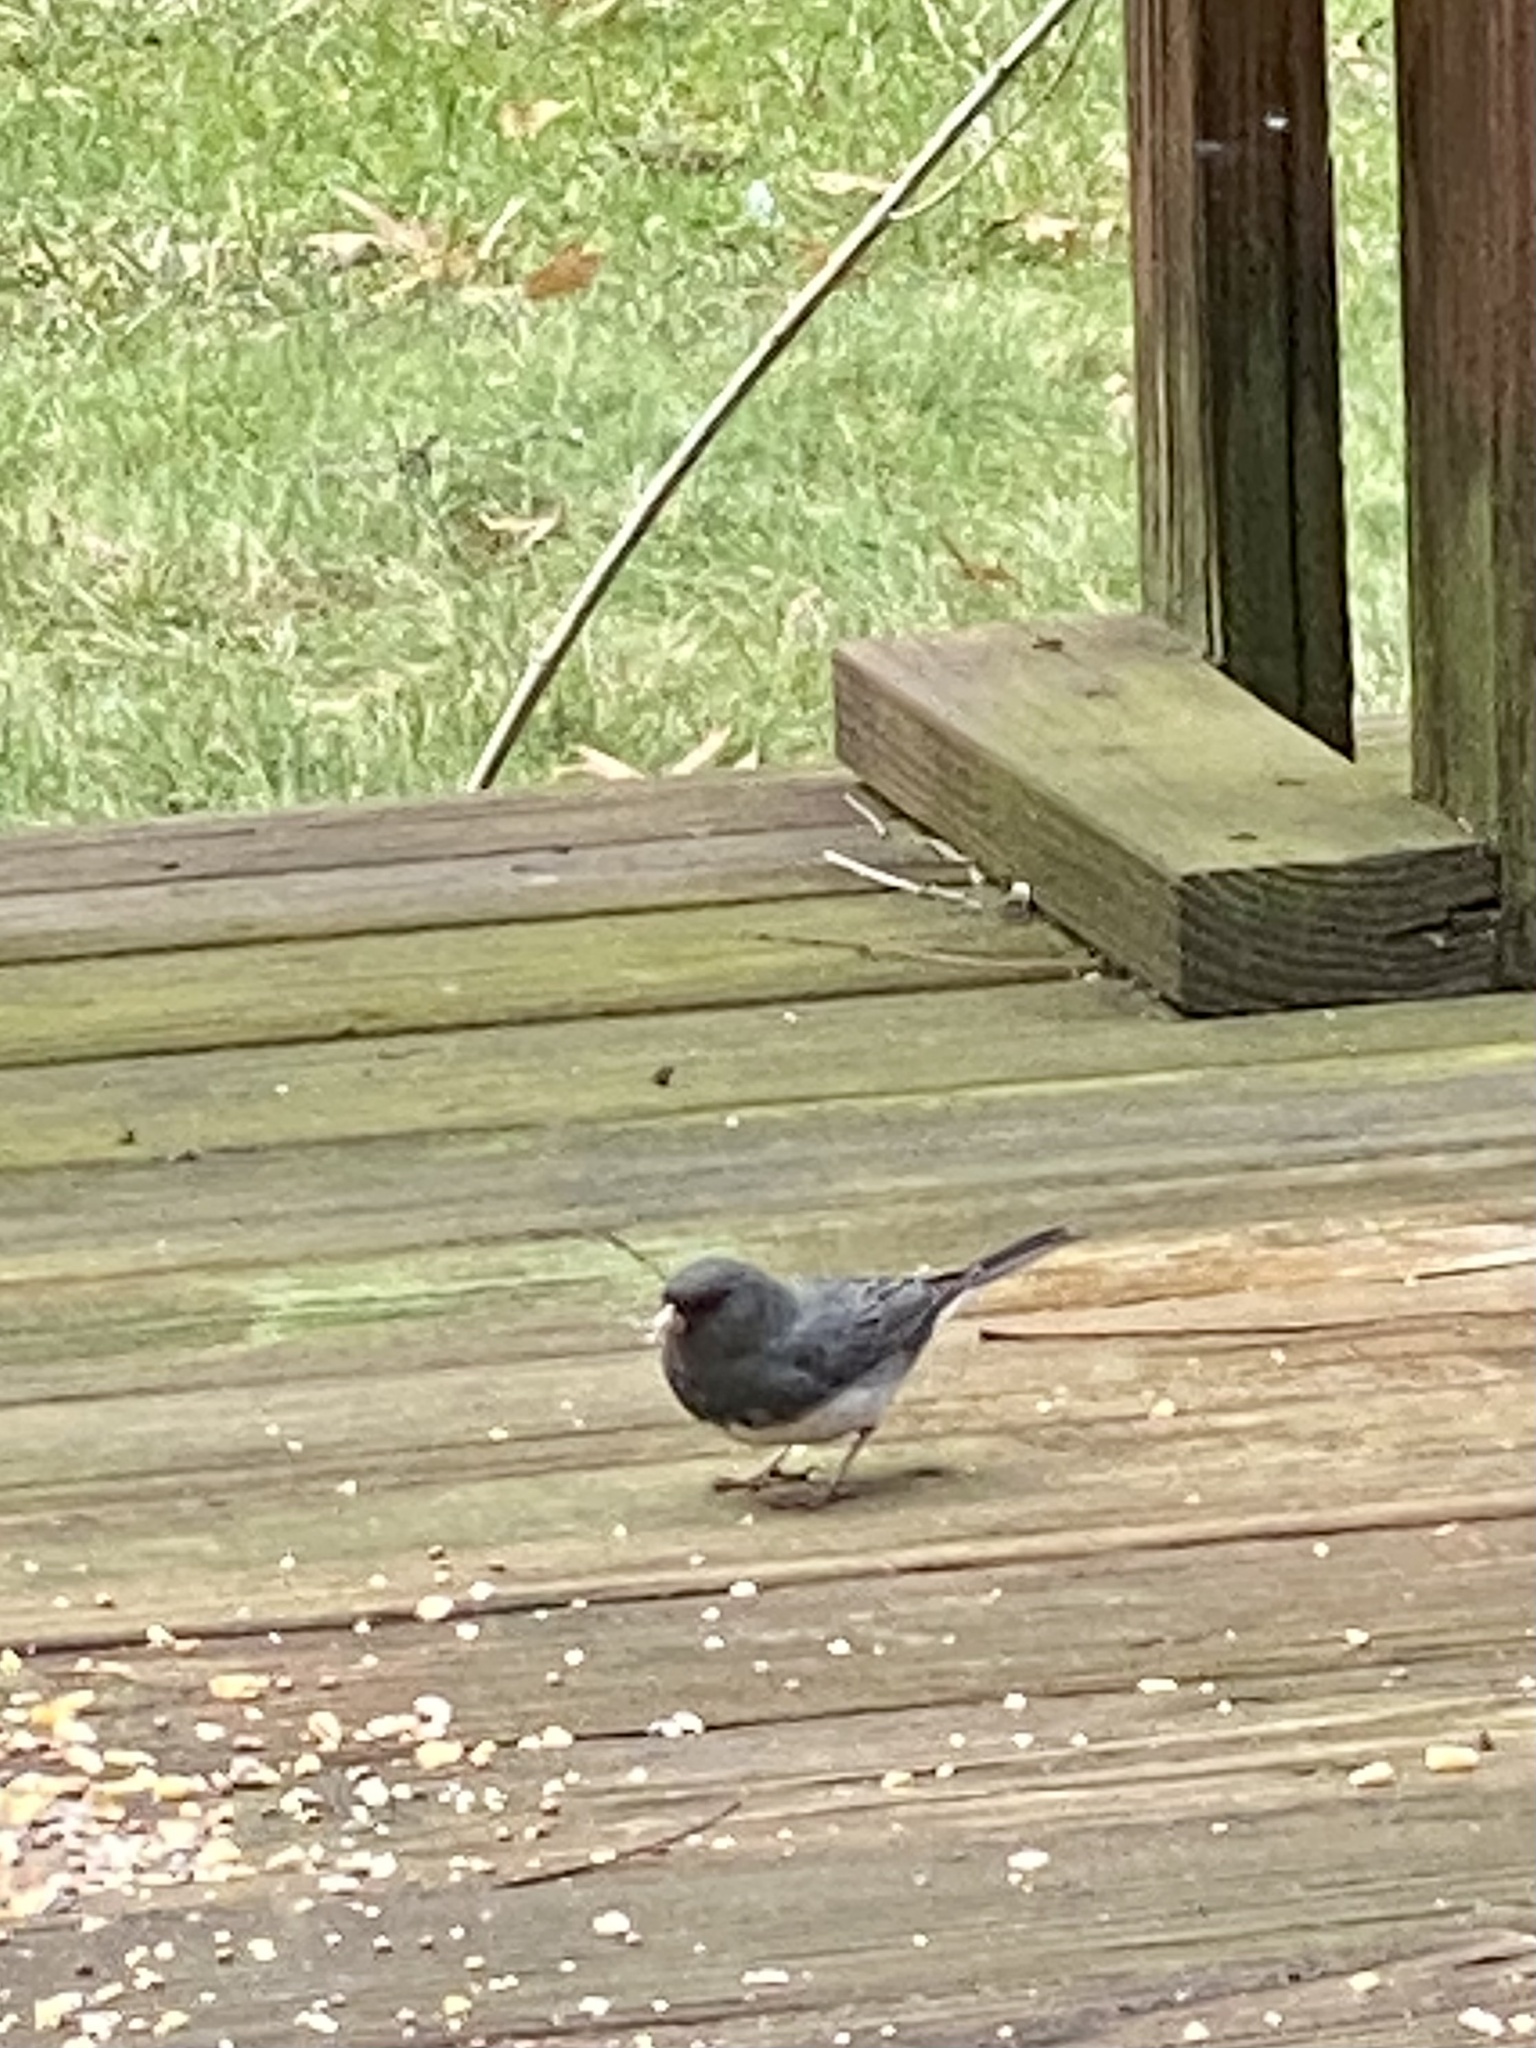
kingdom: Animalia
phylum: Chordata
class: Aves
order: Passeriformes
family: Passerellidae
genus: Junco
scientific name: Junco hyemalis
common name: Dark-eyed junco
